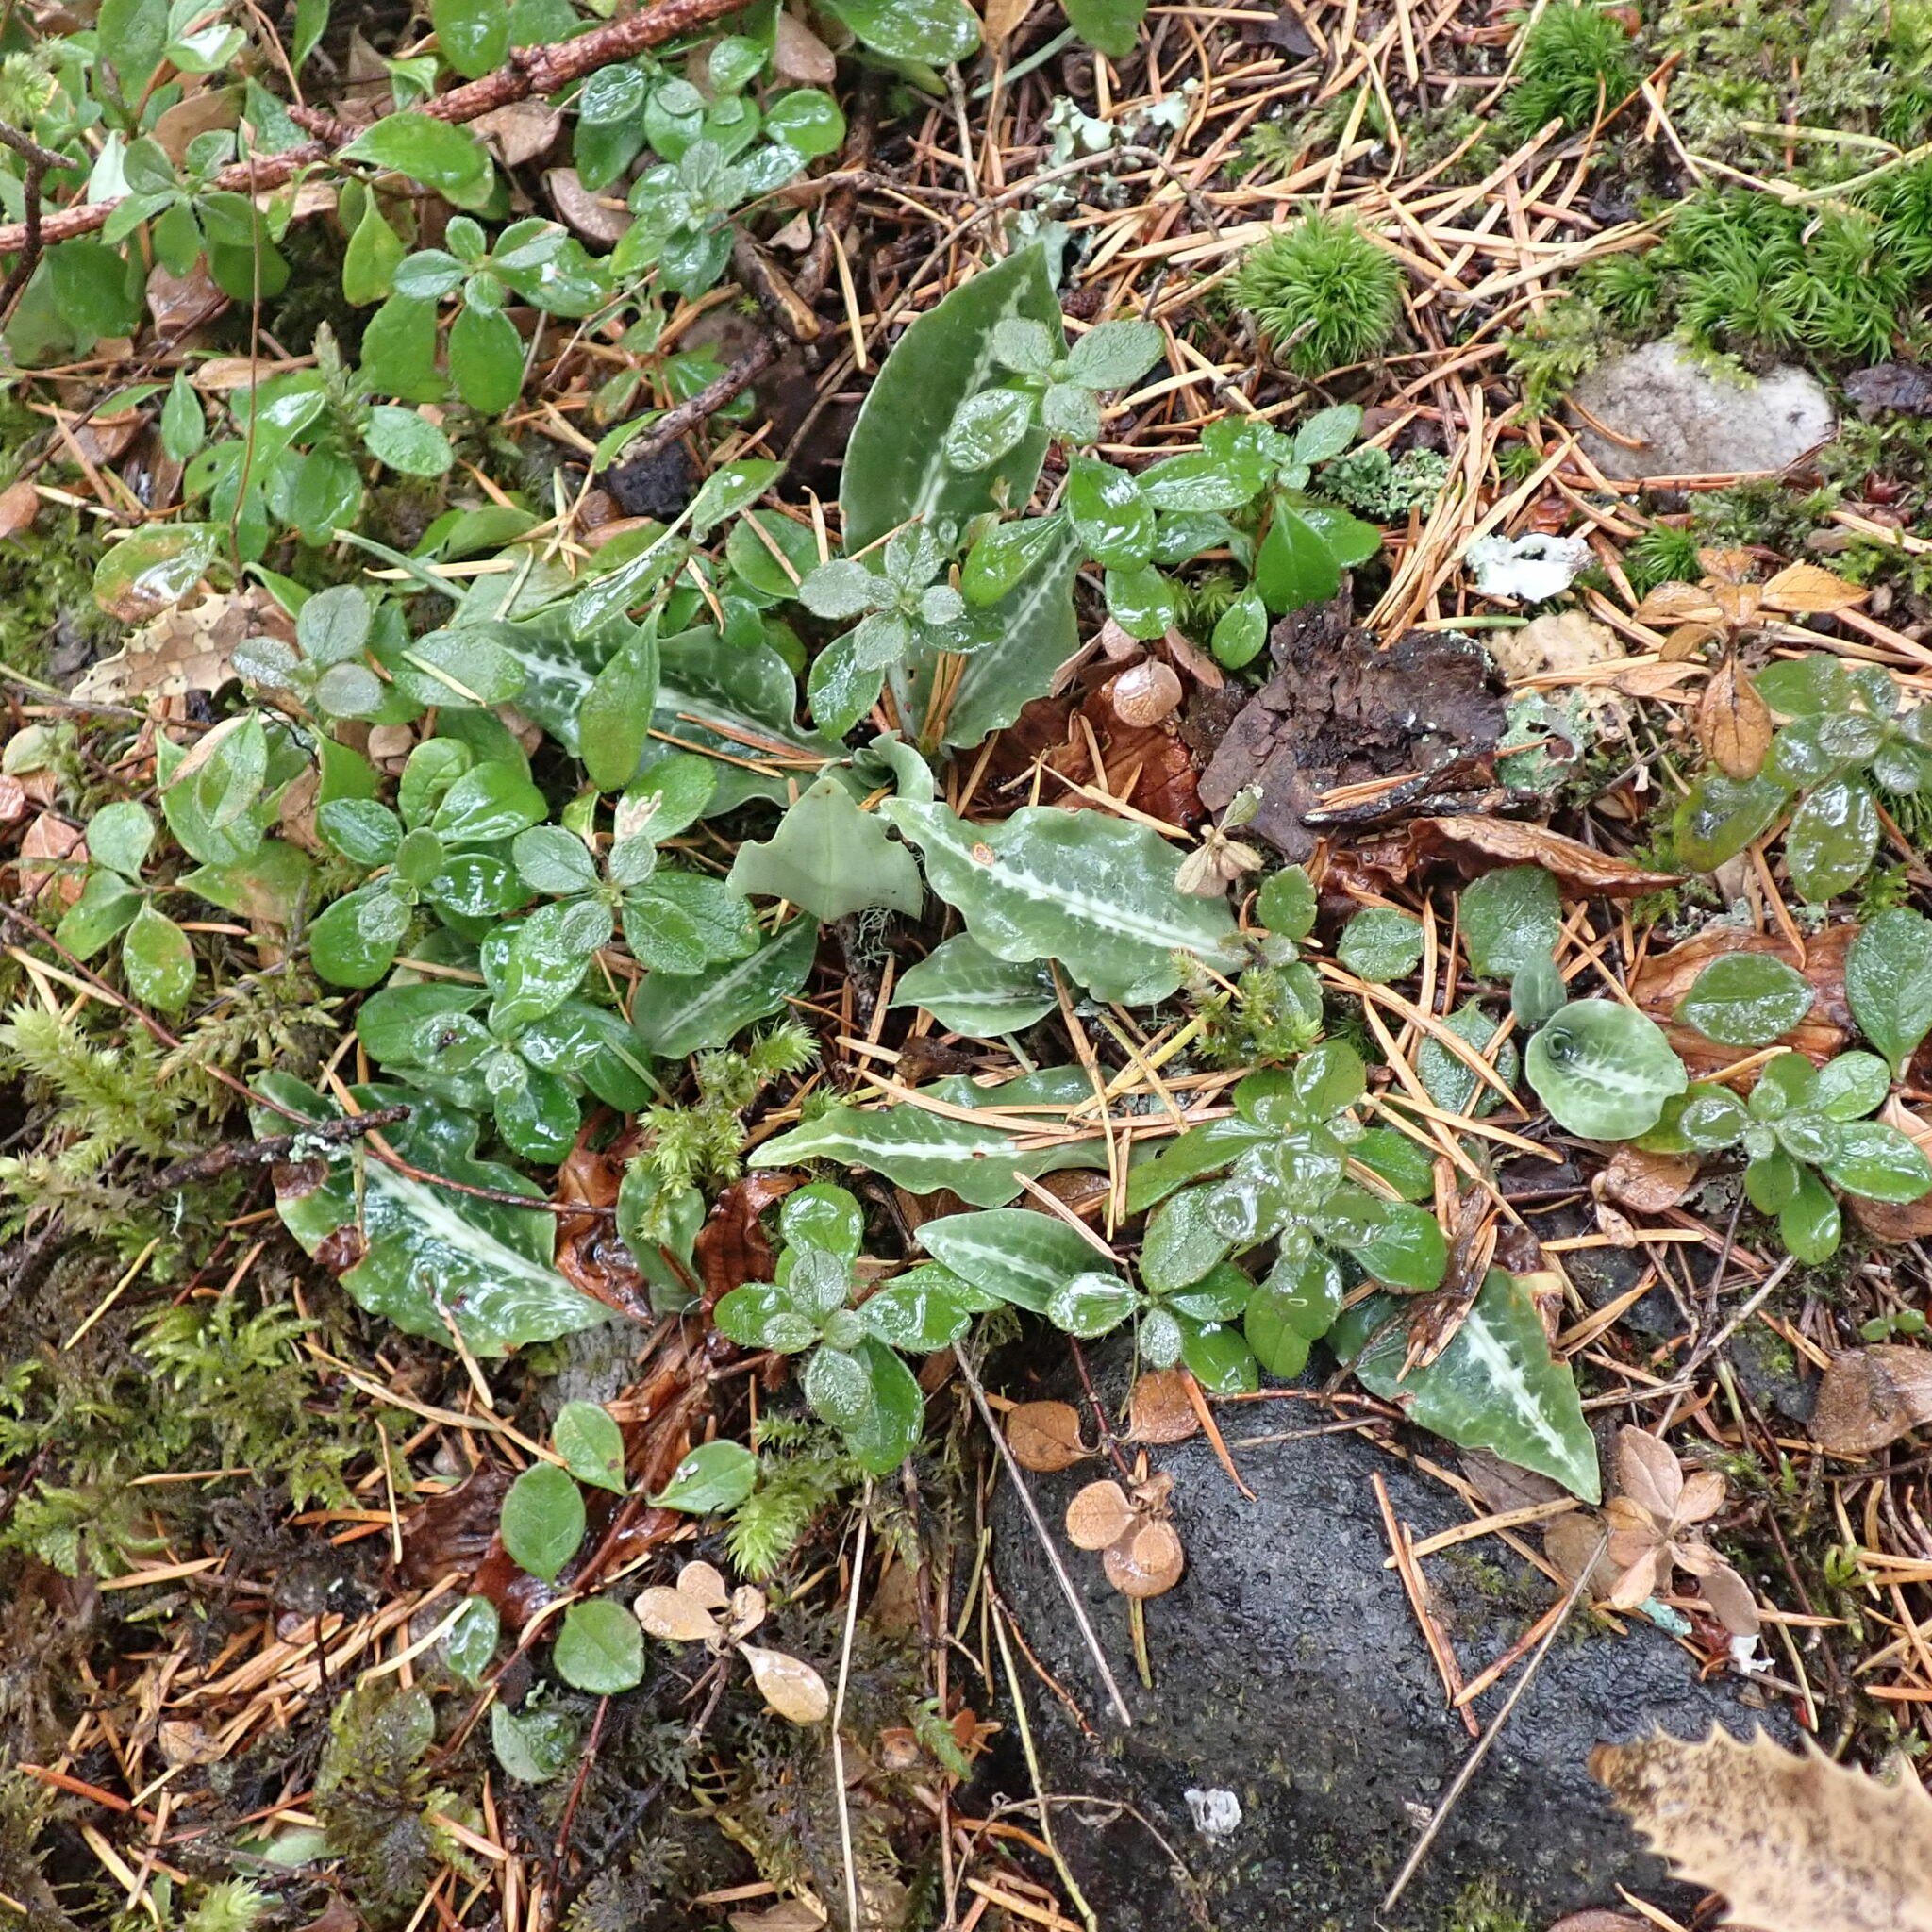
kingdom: Plantae
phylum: Tracheophyta
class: Liliopsida
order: Asparagales
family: Orchidaceae
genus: Goodyera
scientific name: Goodyera oblongifolia
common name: Giant rattlesnake-plantain
